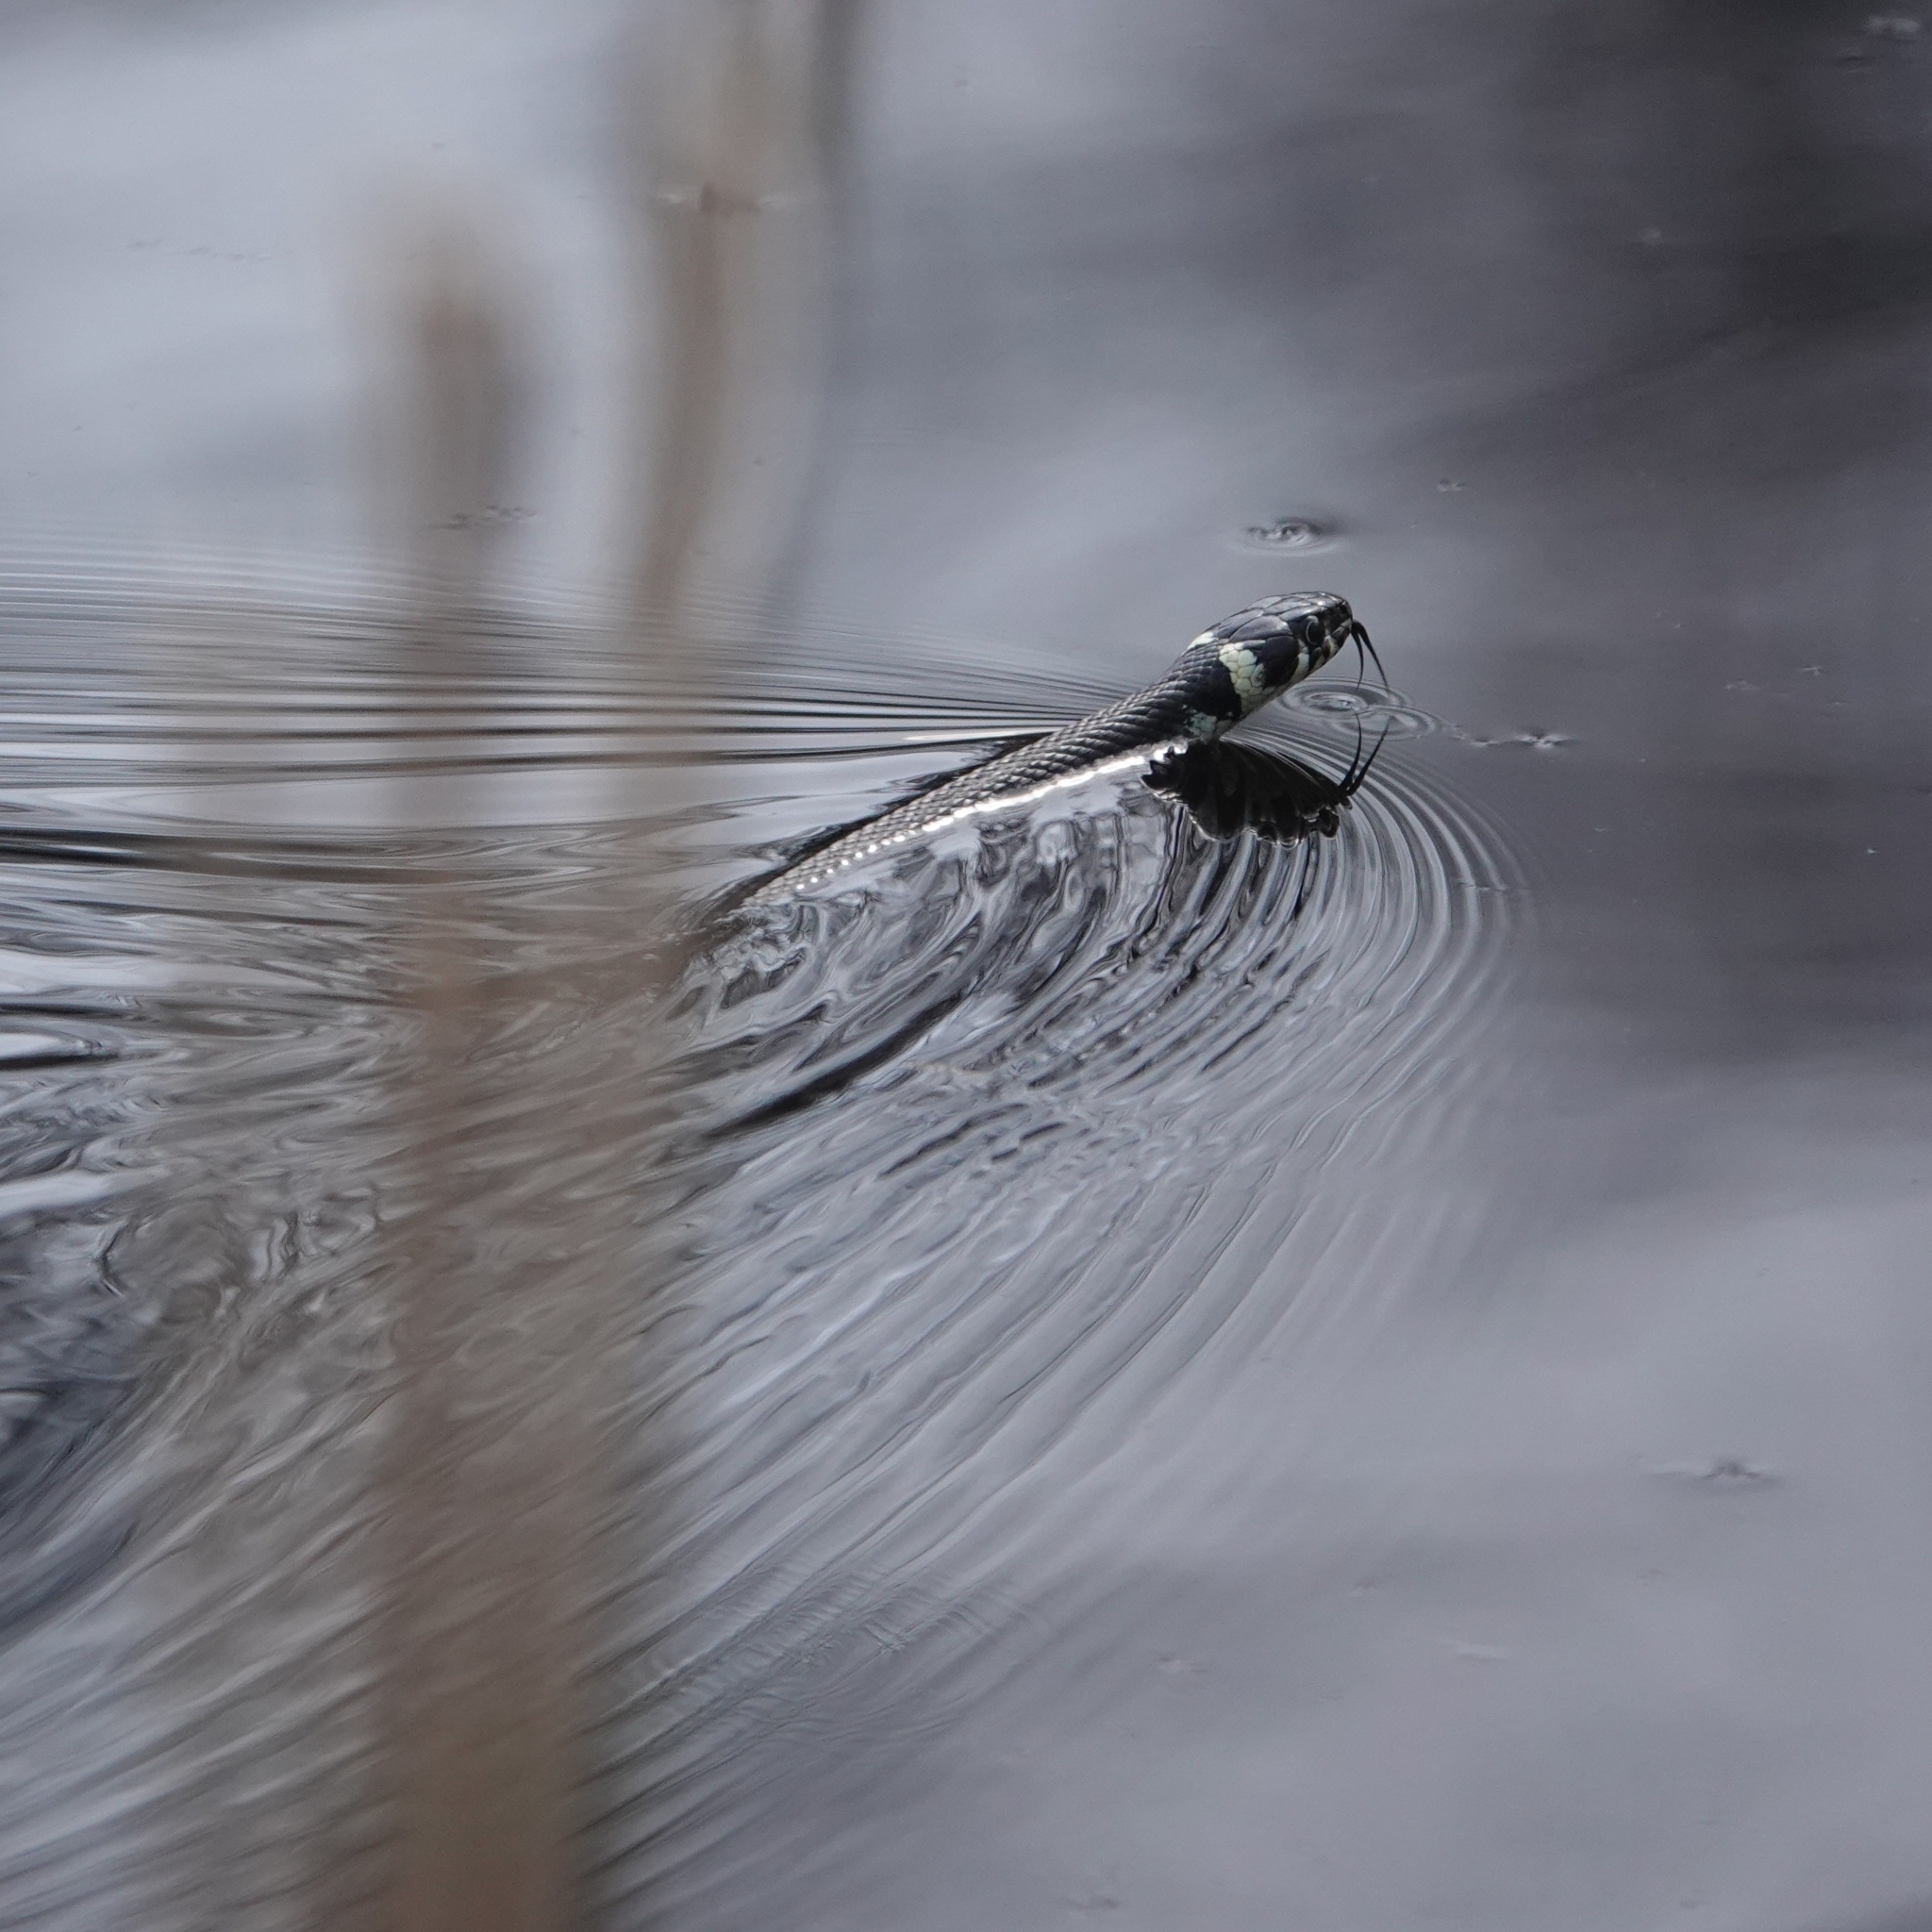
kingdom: Animalia
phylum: Chordata
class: Squamata
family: Colubridae
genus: Natrix
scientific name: Natrix natrix
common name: Grass snake
